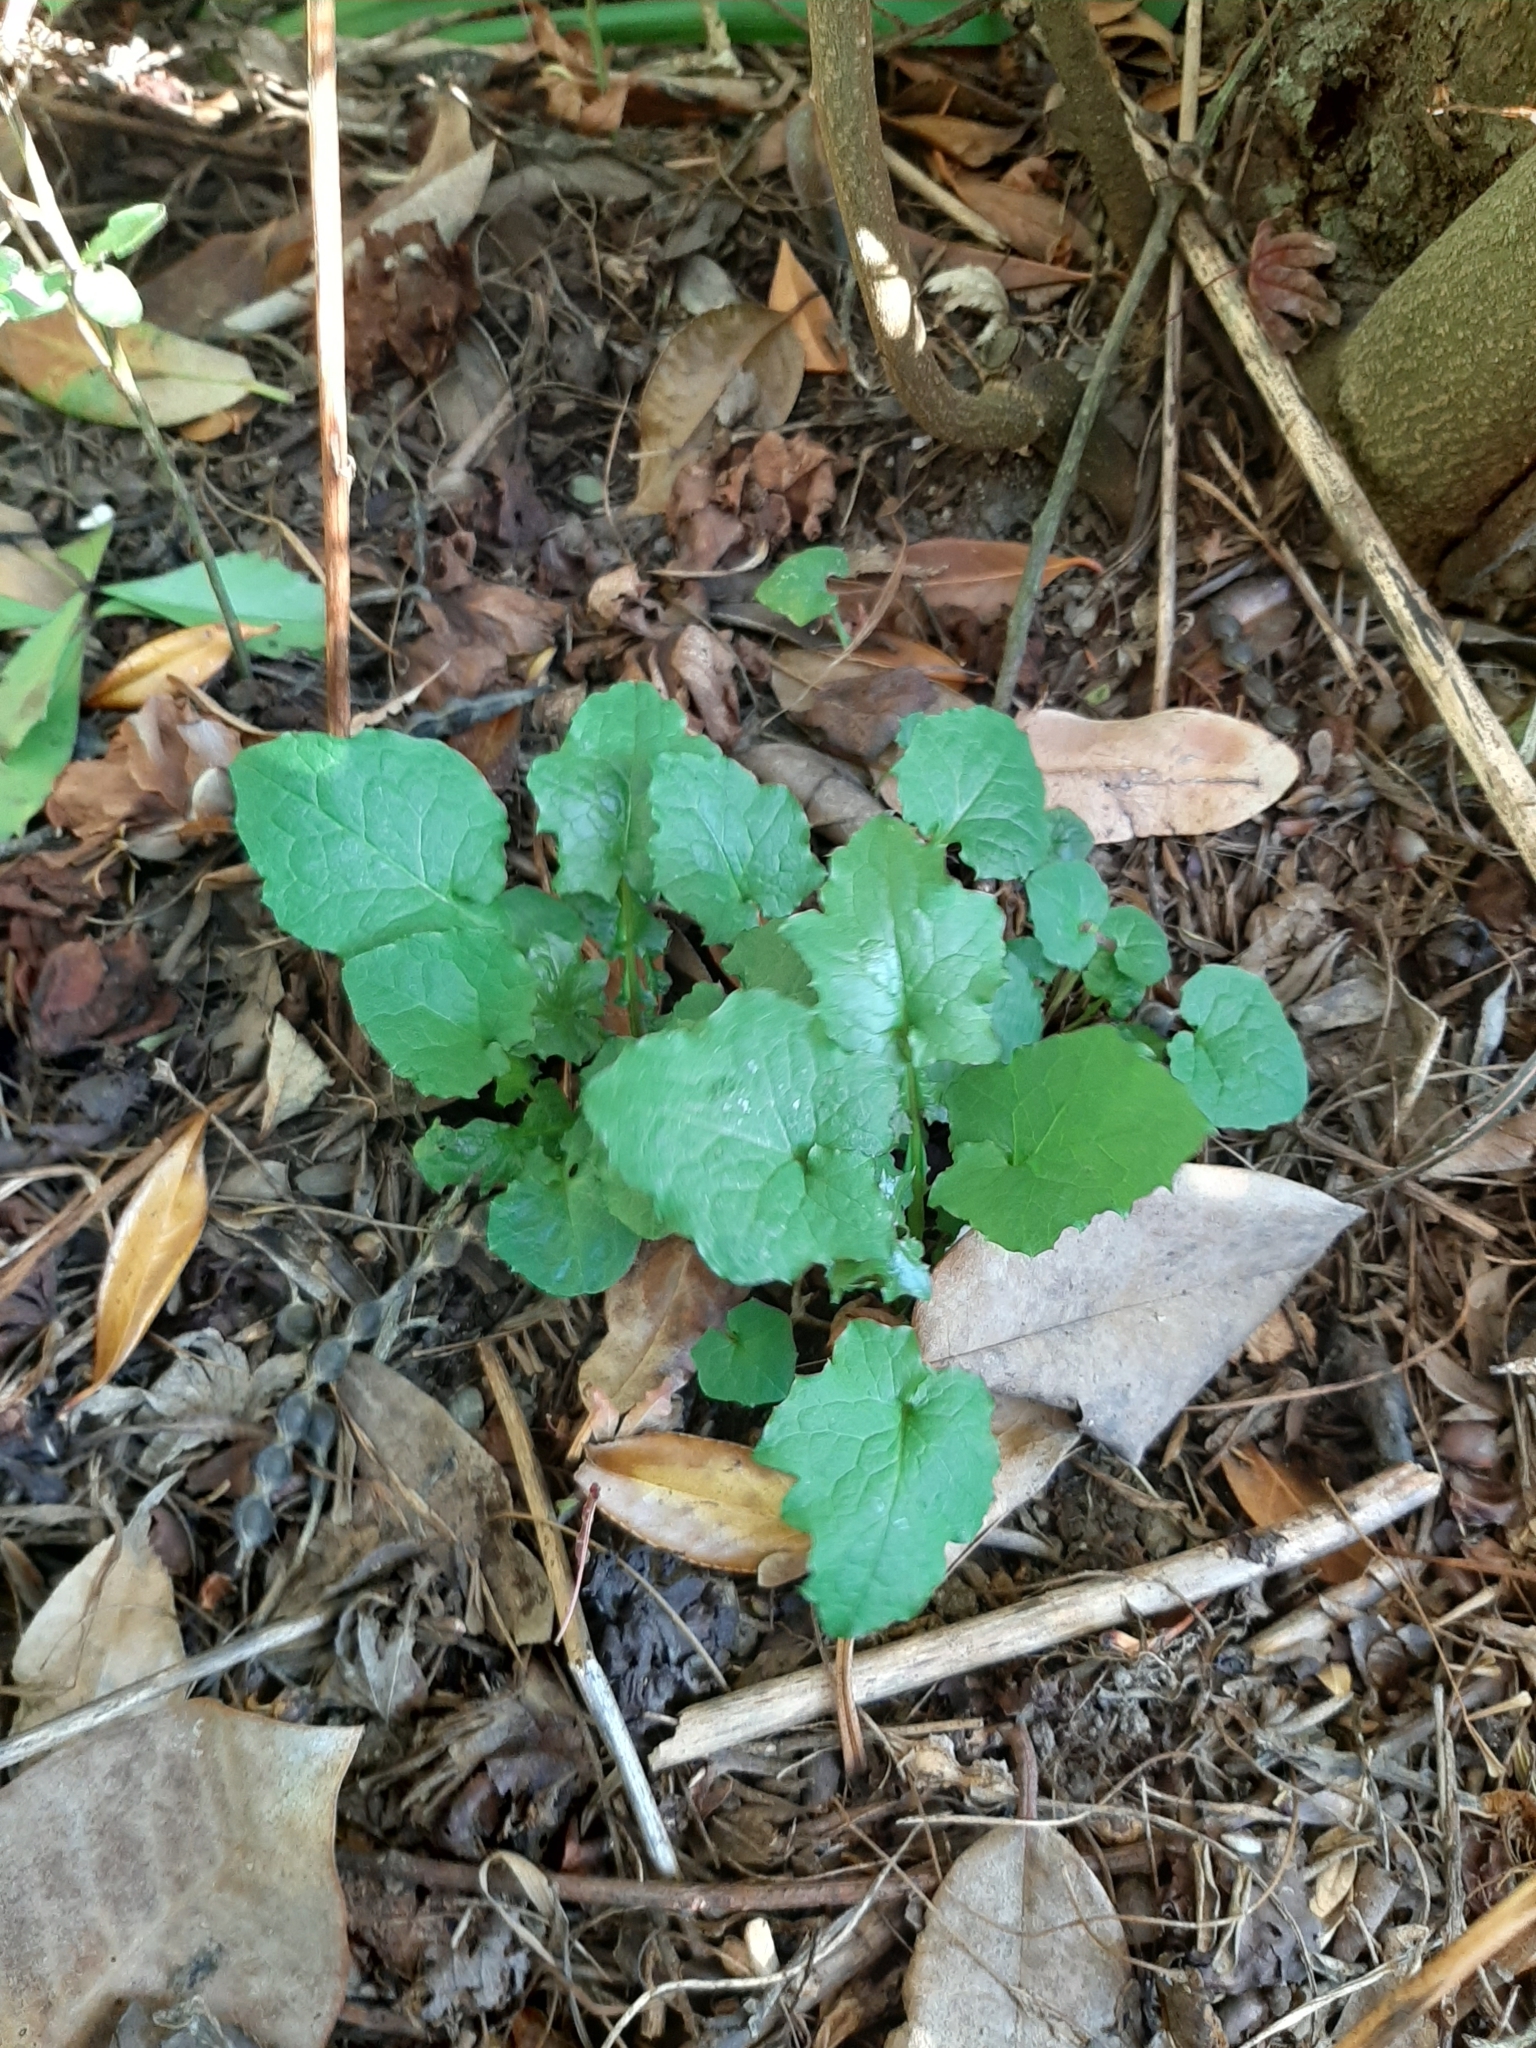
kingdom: Plantae
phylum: Tracheophyta
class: Magnoliopsida
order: Asterales
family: Asteraceae
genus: Lapsana
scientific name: Lapsana communis
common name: Nipplewort
